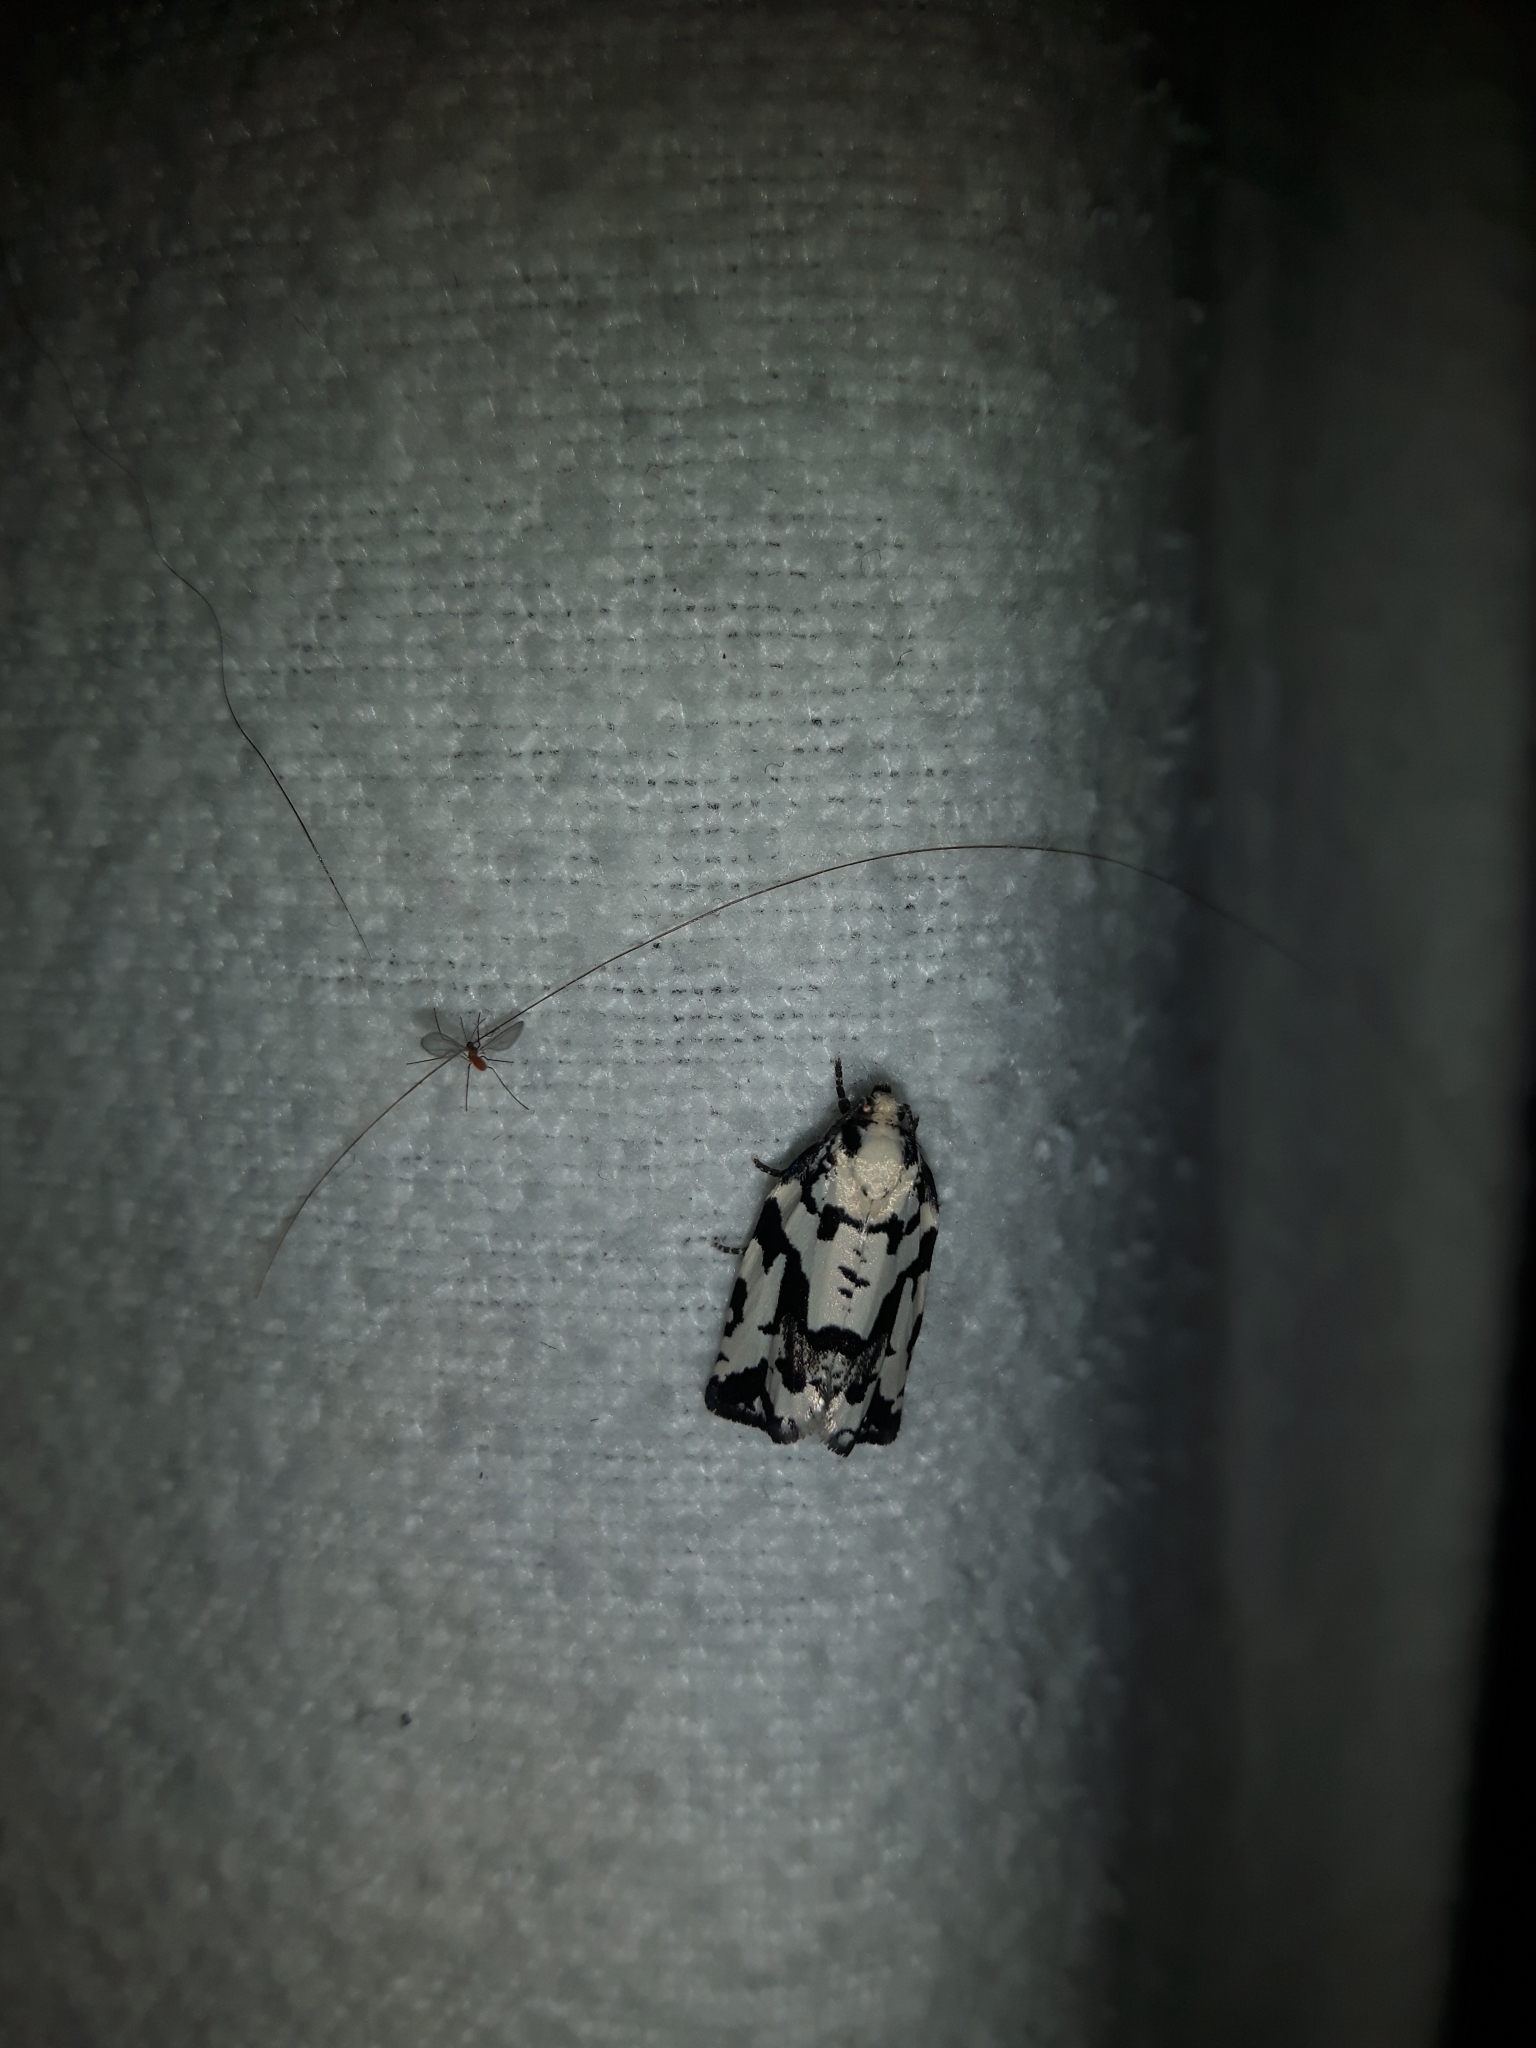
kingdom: Animalia
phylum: Arthropoda
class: Insecta
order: Lepidoptera
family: Tortricidae
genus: Archips
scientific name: Archips dissitana
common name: Boldly-marked archips moth
